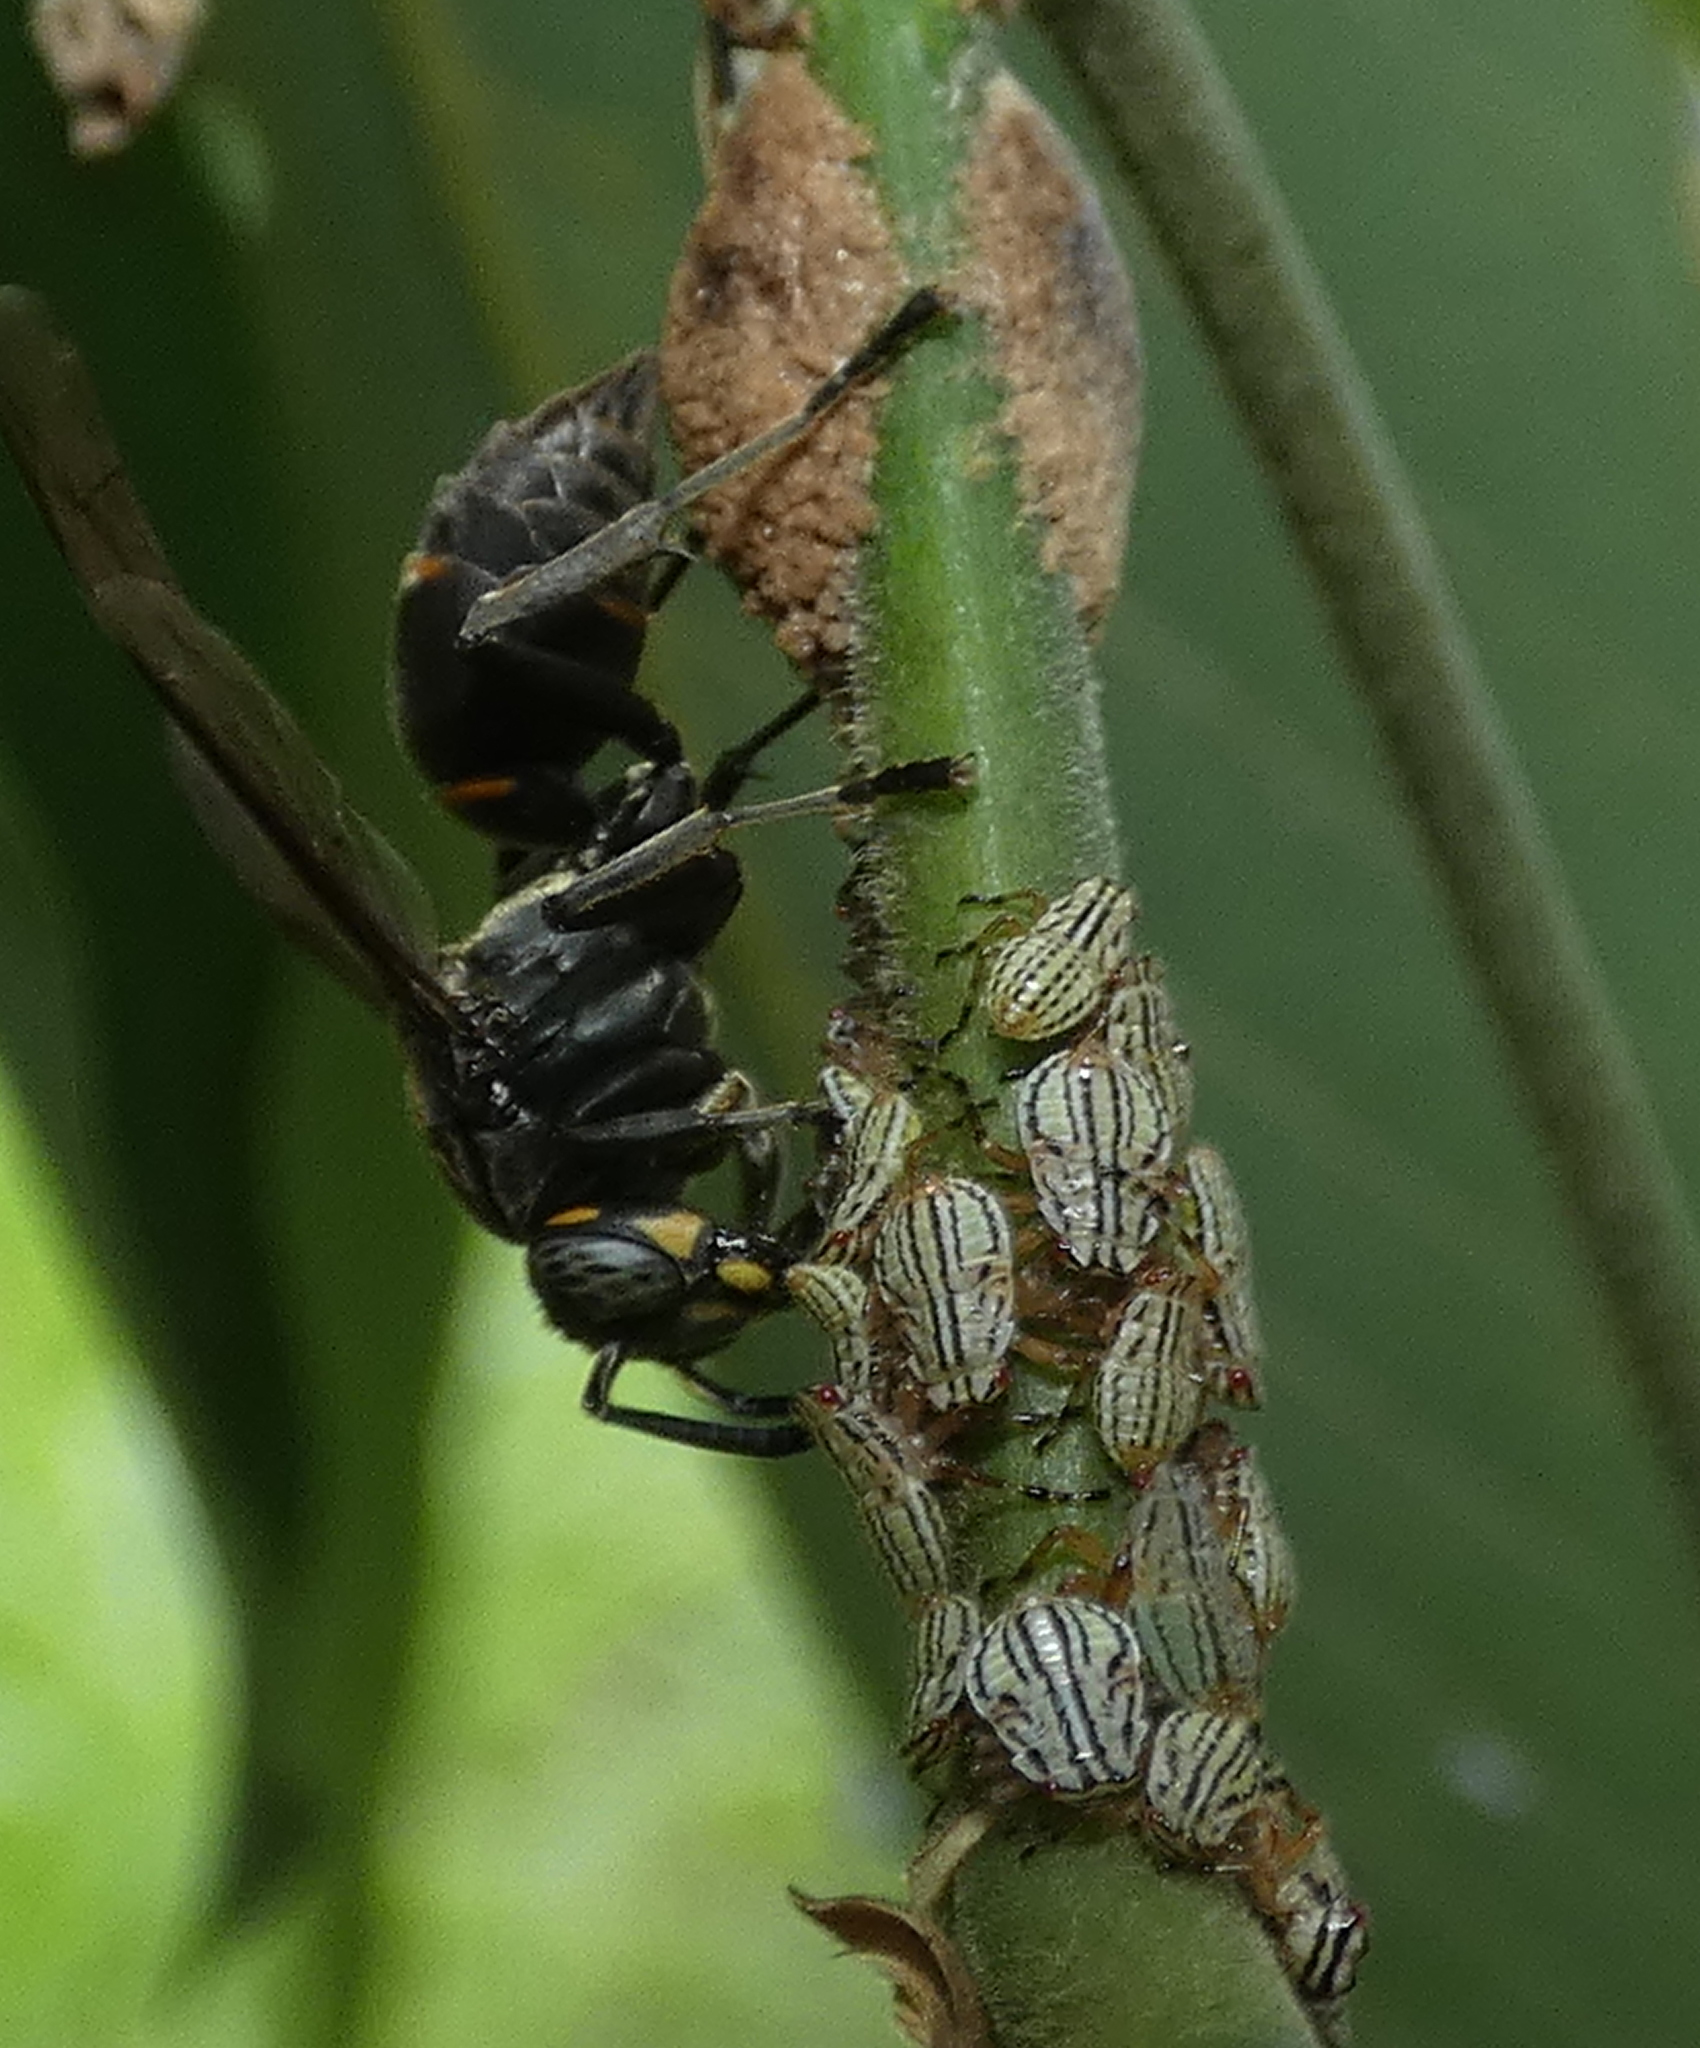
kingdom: Animalia
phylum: Arthropoda
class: Insecta
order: Hemiptera
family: Aetalionidae
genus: Aetalion
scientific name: Aetalion reticulatum
